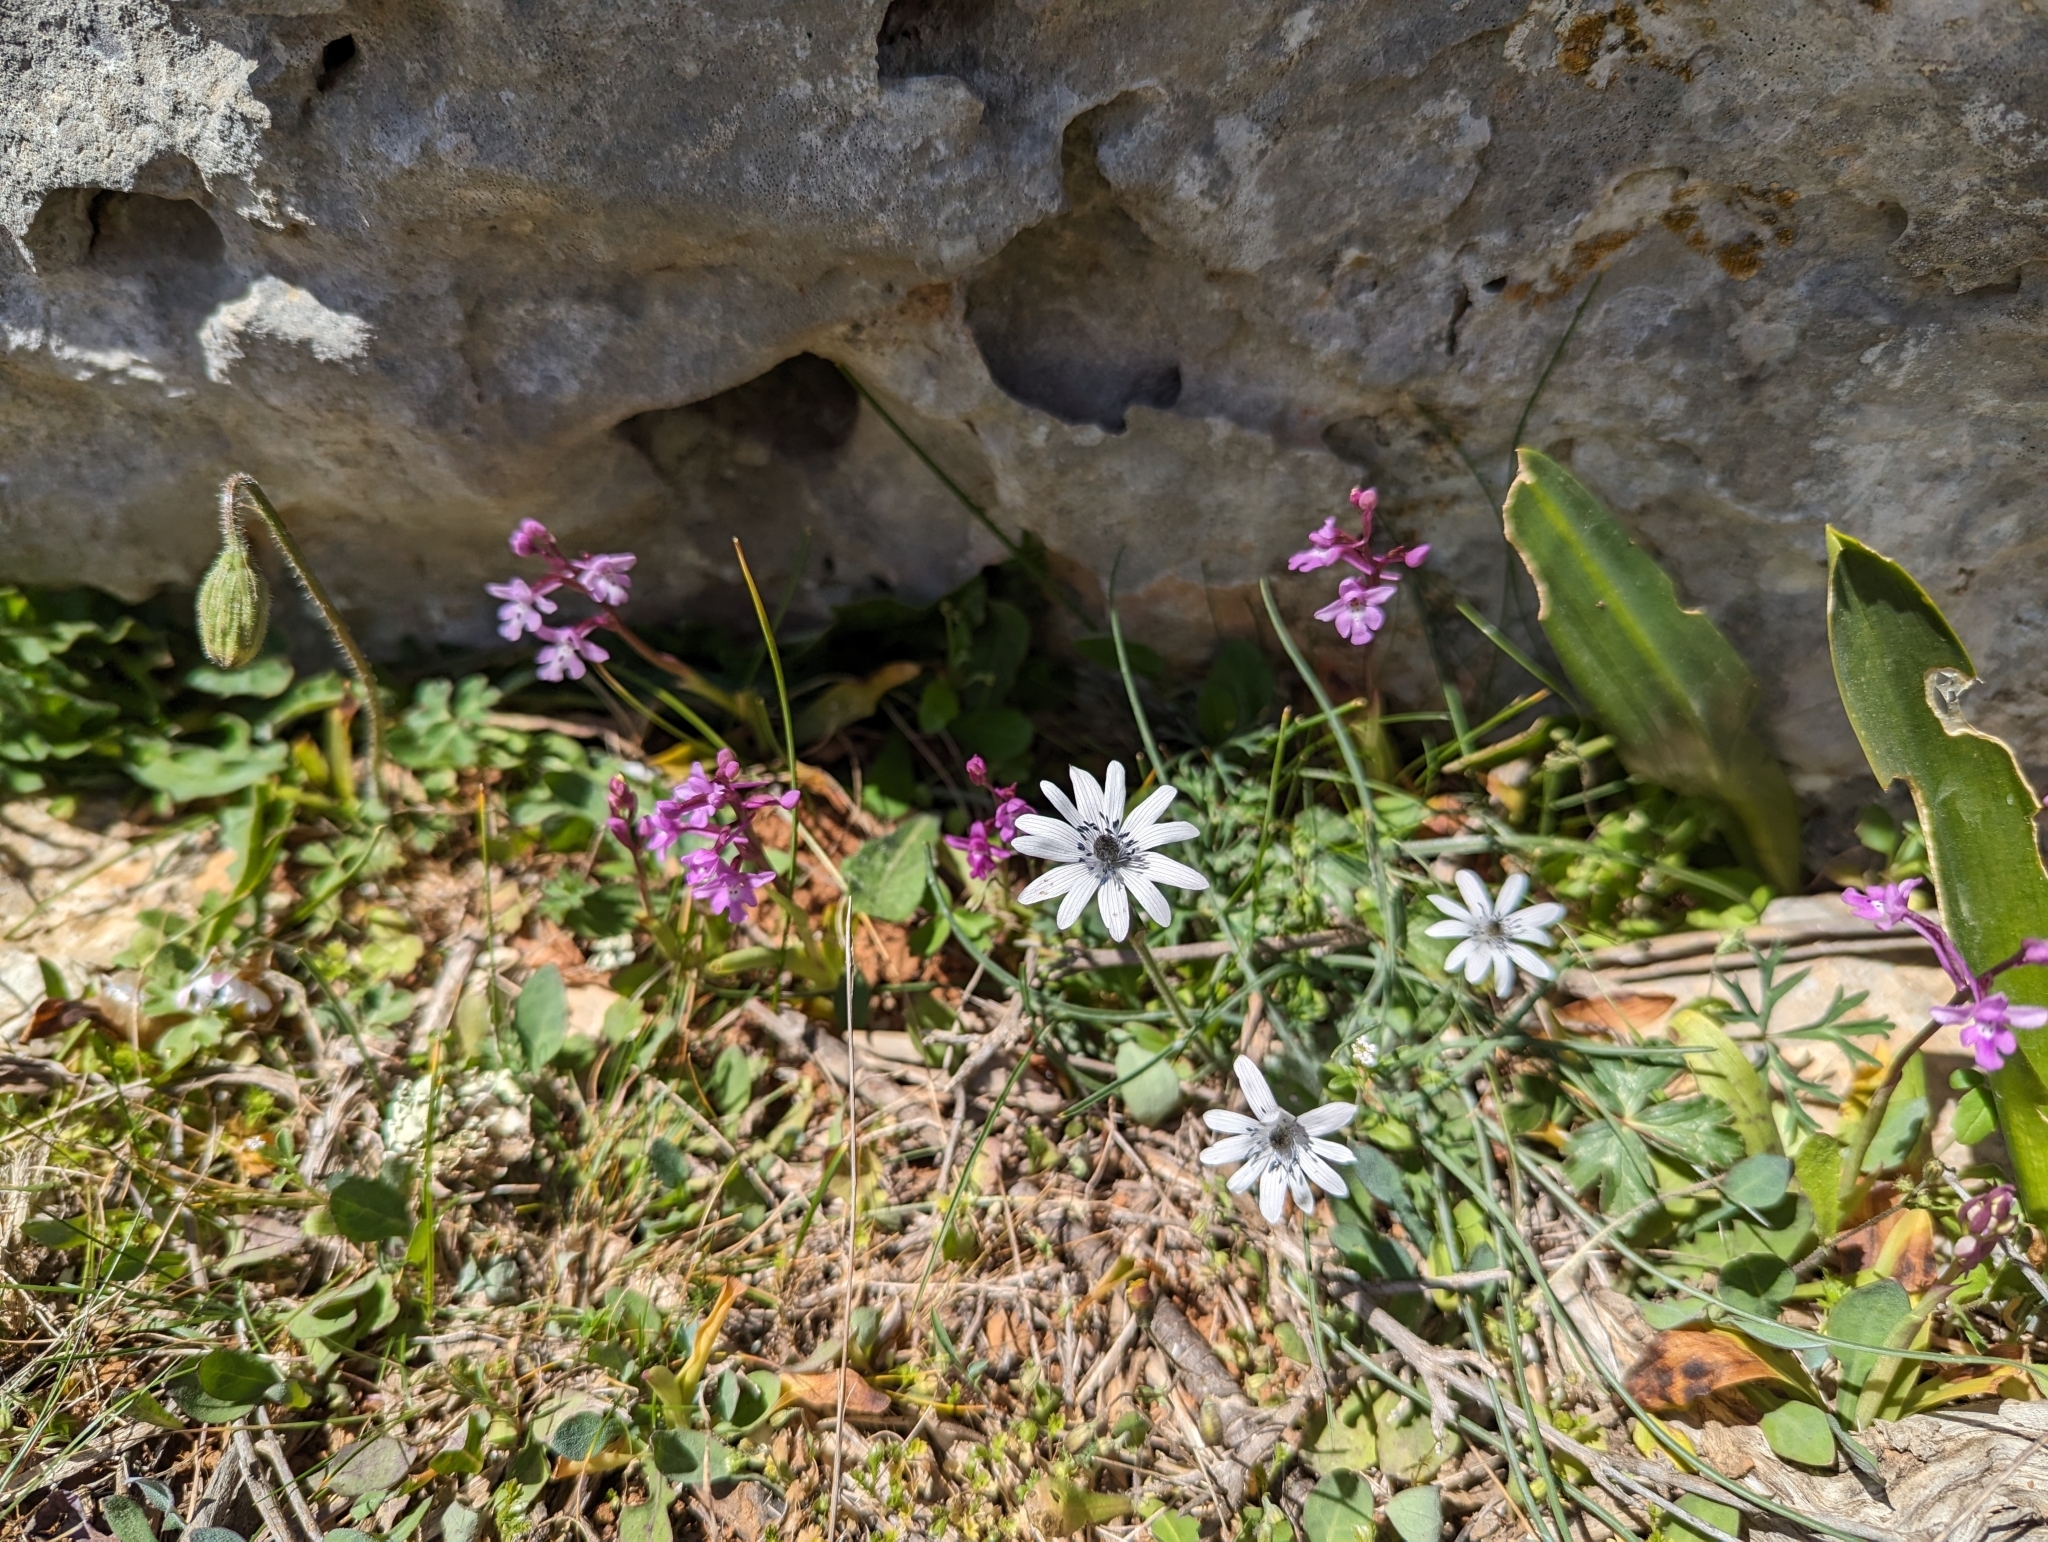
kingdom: Plantae
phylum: Tracheophyta
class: Magnoliopsida
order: Ranunculales
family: Ranunculaceae
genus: Anemone
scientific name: Anemone hortensis
